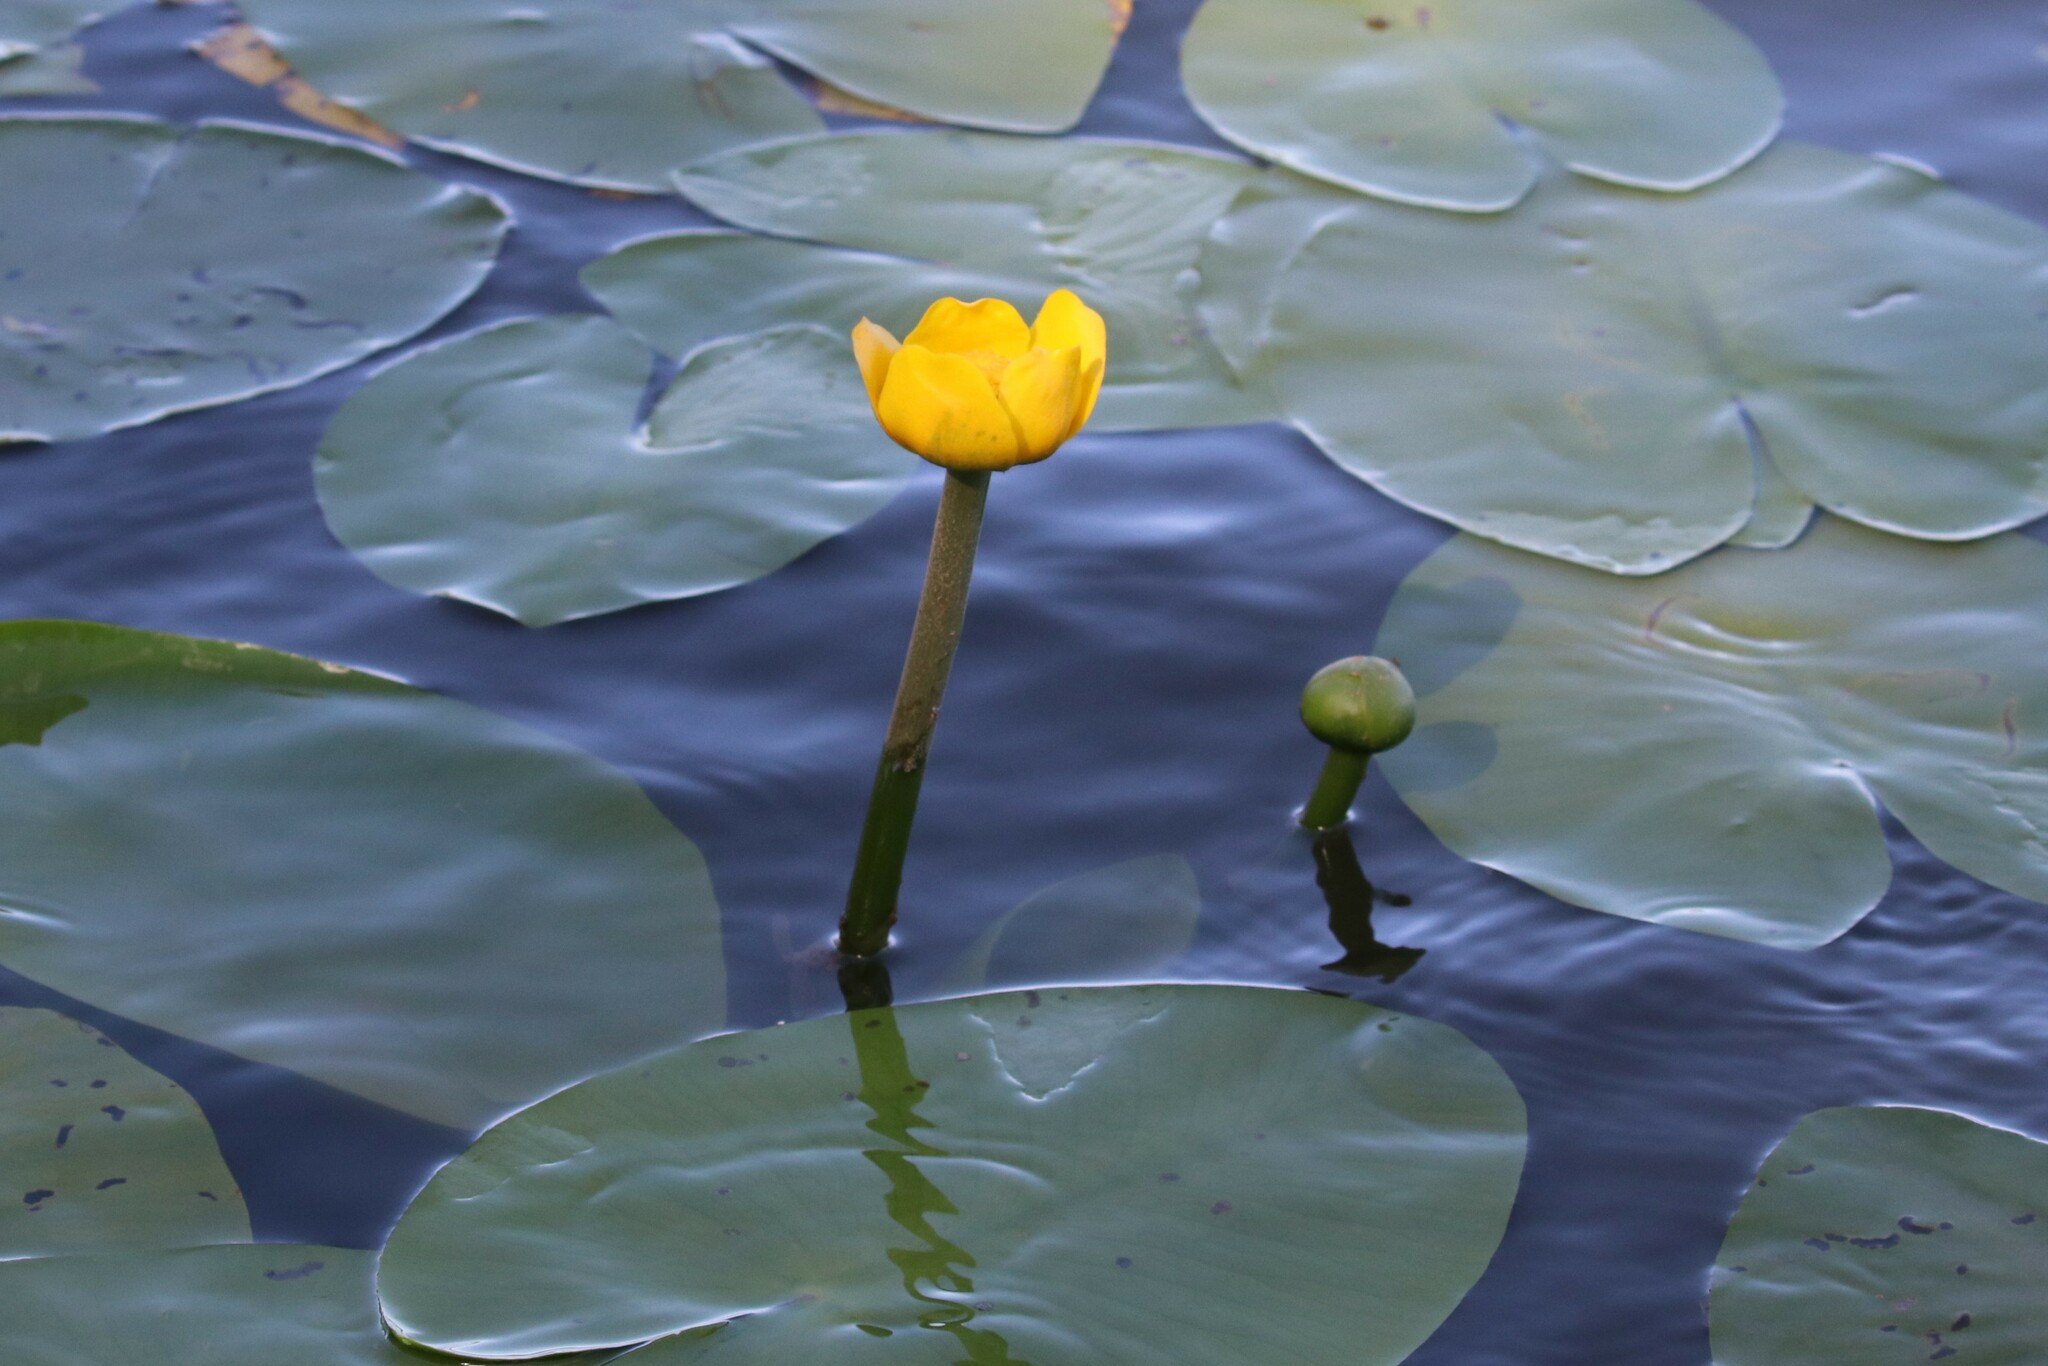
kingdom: Plantae
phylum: Tracheophyta
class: Magnoliopsida
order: Nymphaeales
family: Nymphaeaceae
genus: Nuphar
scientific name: Nuphar lutea
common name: Yellow water-lily
